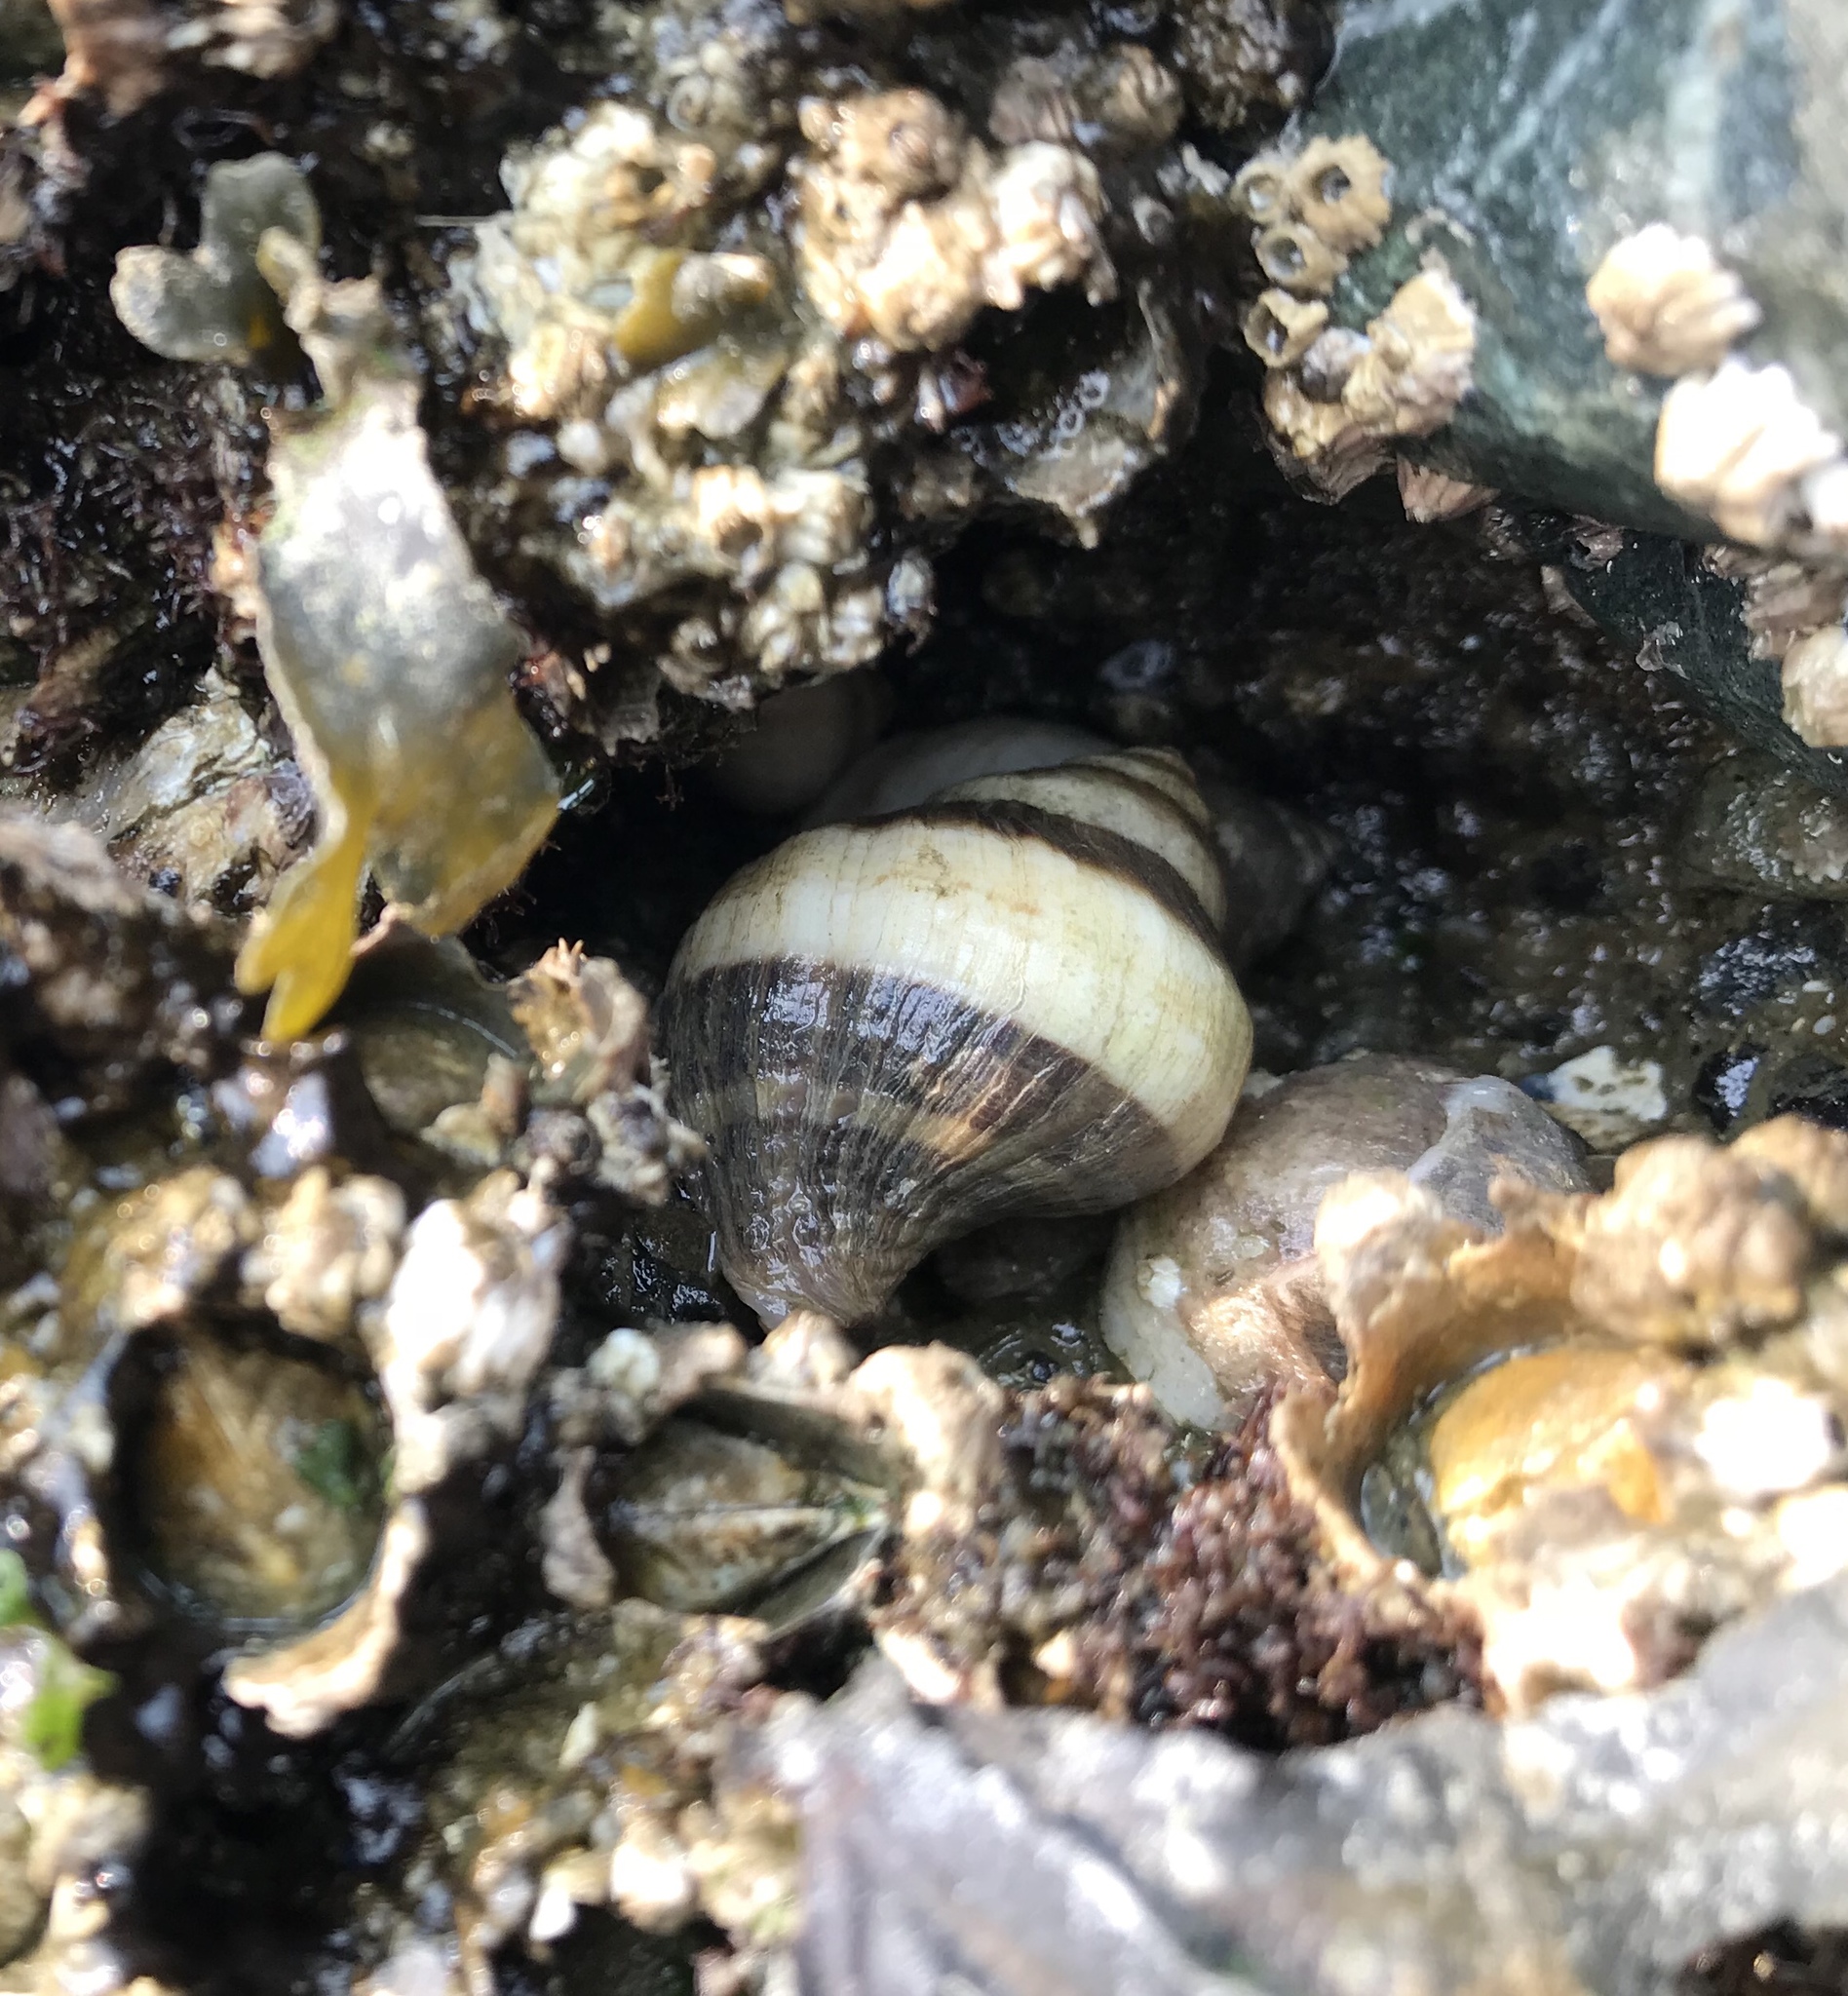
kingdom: Animalia
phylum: Mollusca
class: Gastropoda
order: Neogastropoda
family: Muricidae
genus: Nucella
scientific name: Nucella lamellosa
